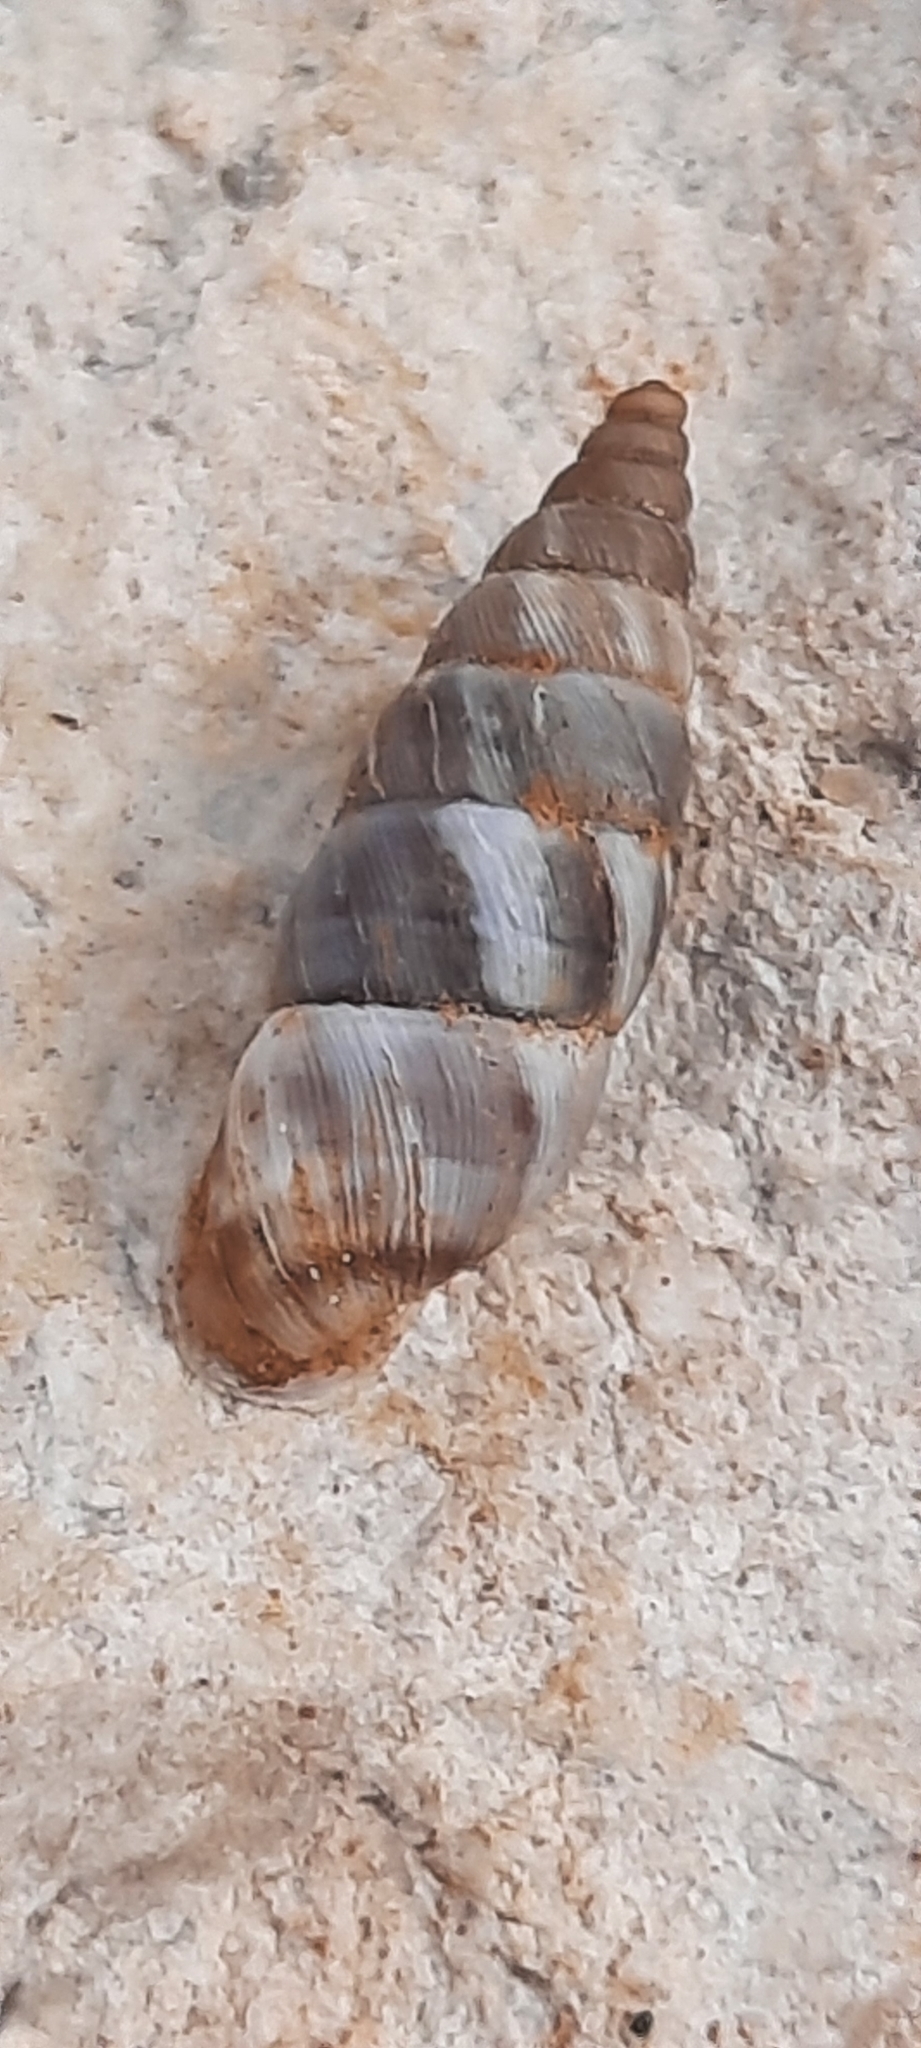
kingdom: Animalia
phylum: Mollusca
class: Gastropoda
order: Stylommatophora
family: Chondrinidae
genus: Solatopupa
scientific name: Solatopupa similis
